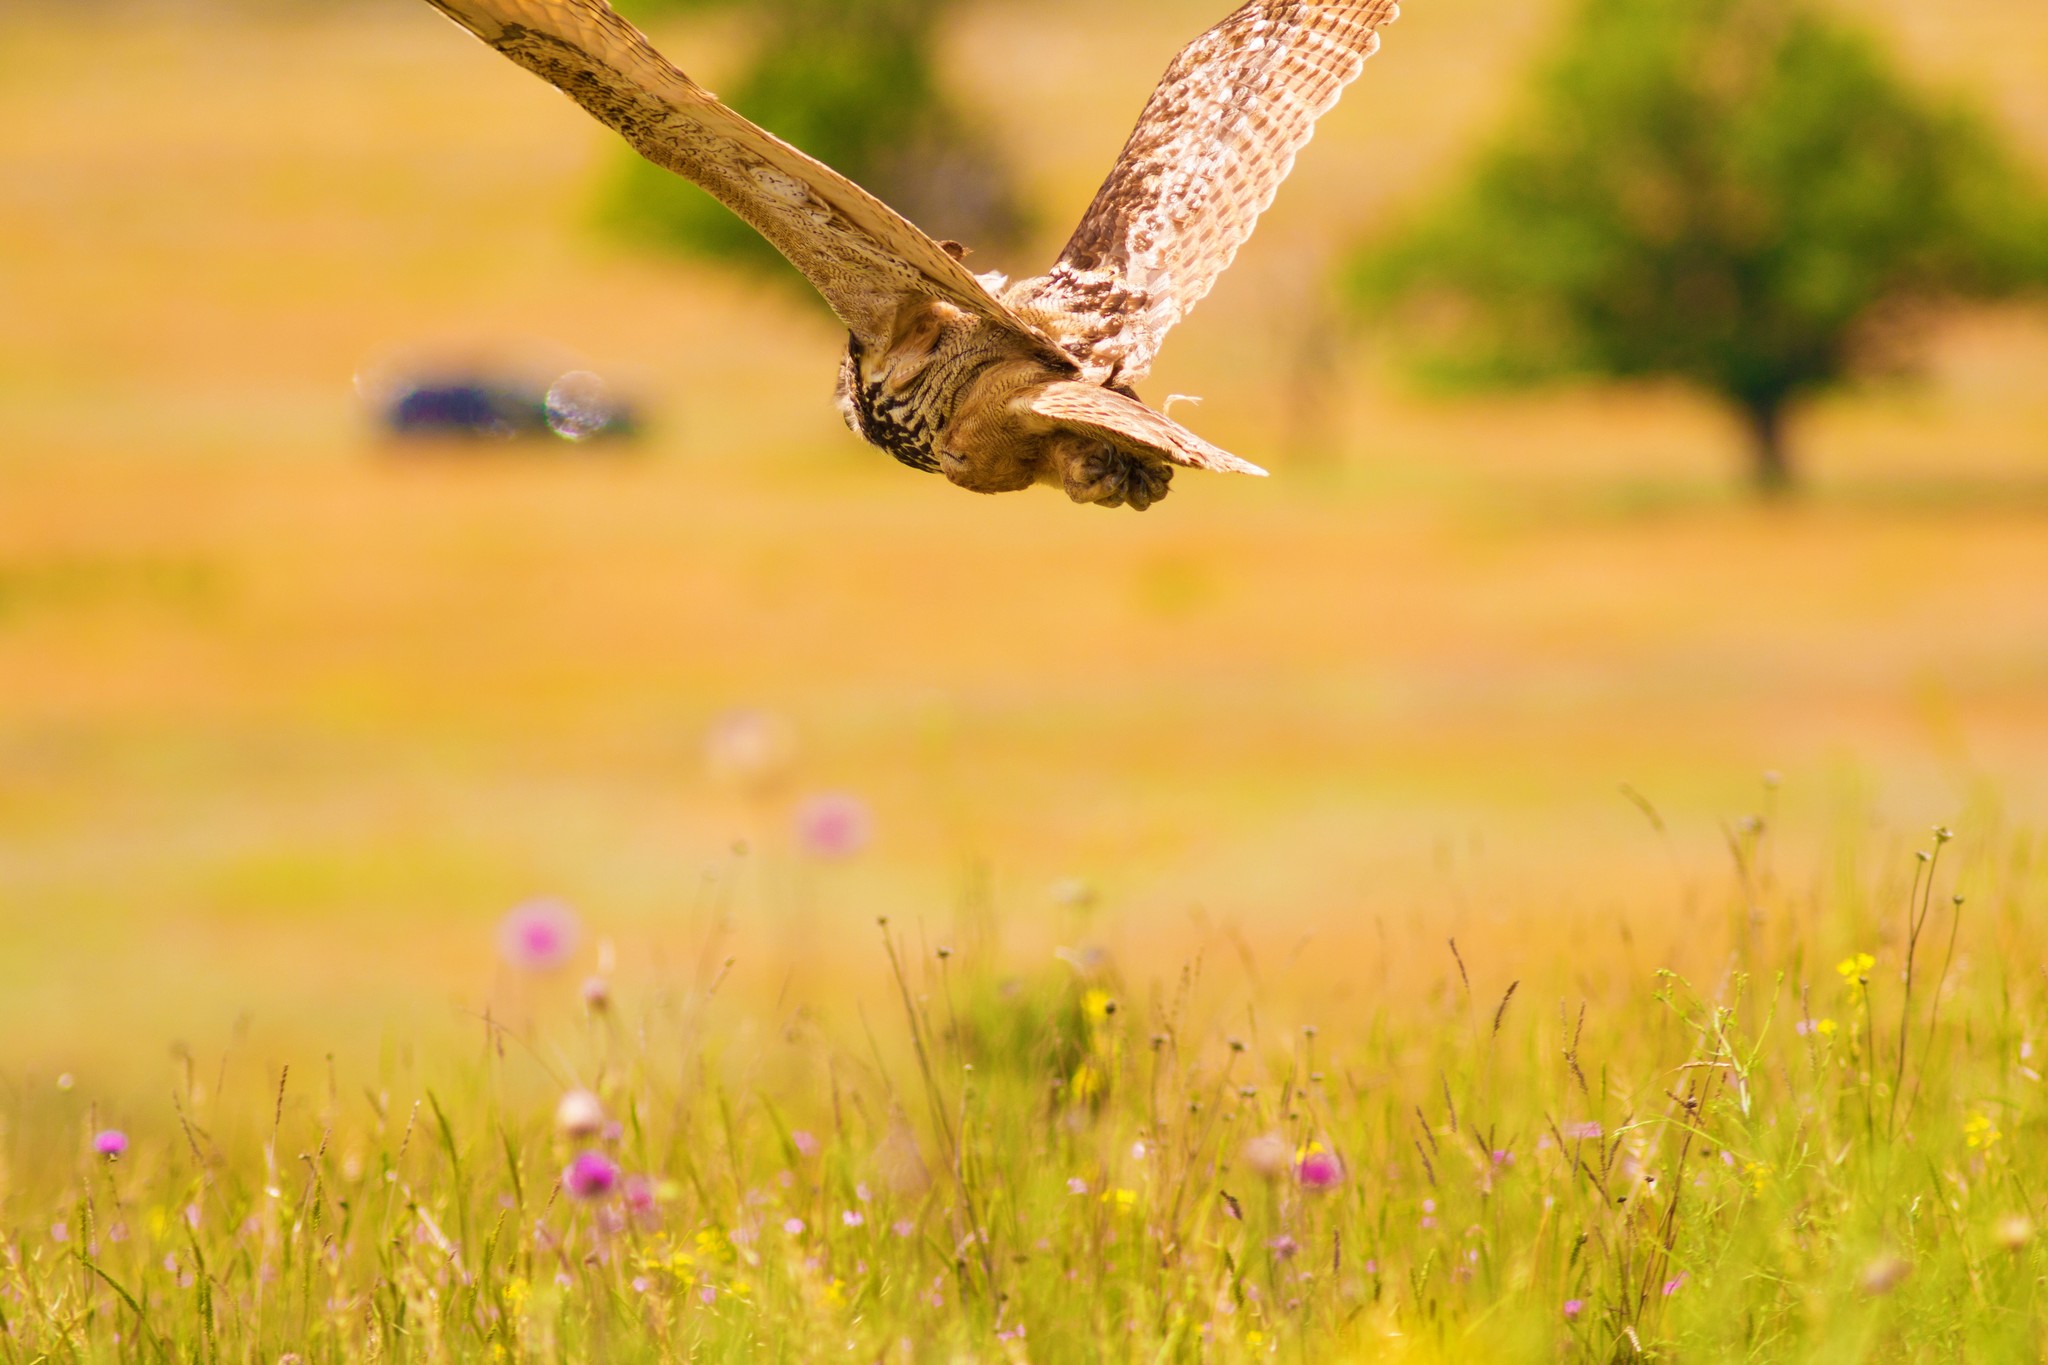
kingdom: Animalia
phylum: Chordata
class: Aves
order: Strigiformes
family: Strigidae
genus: Bubo
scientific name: Bubo bubo
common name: Eurasian eagle-owl
